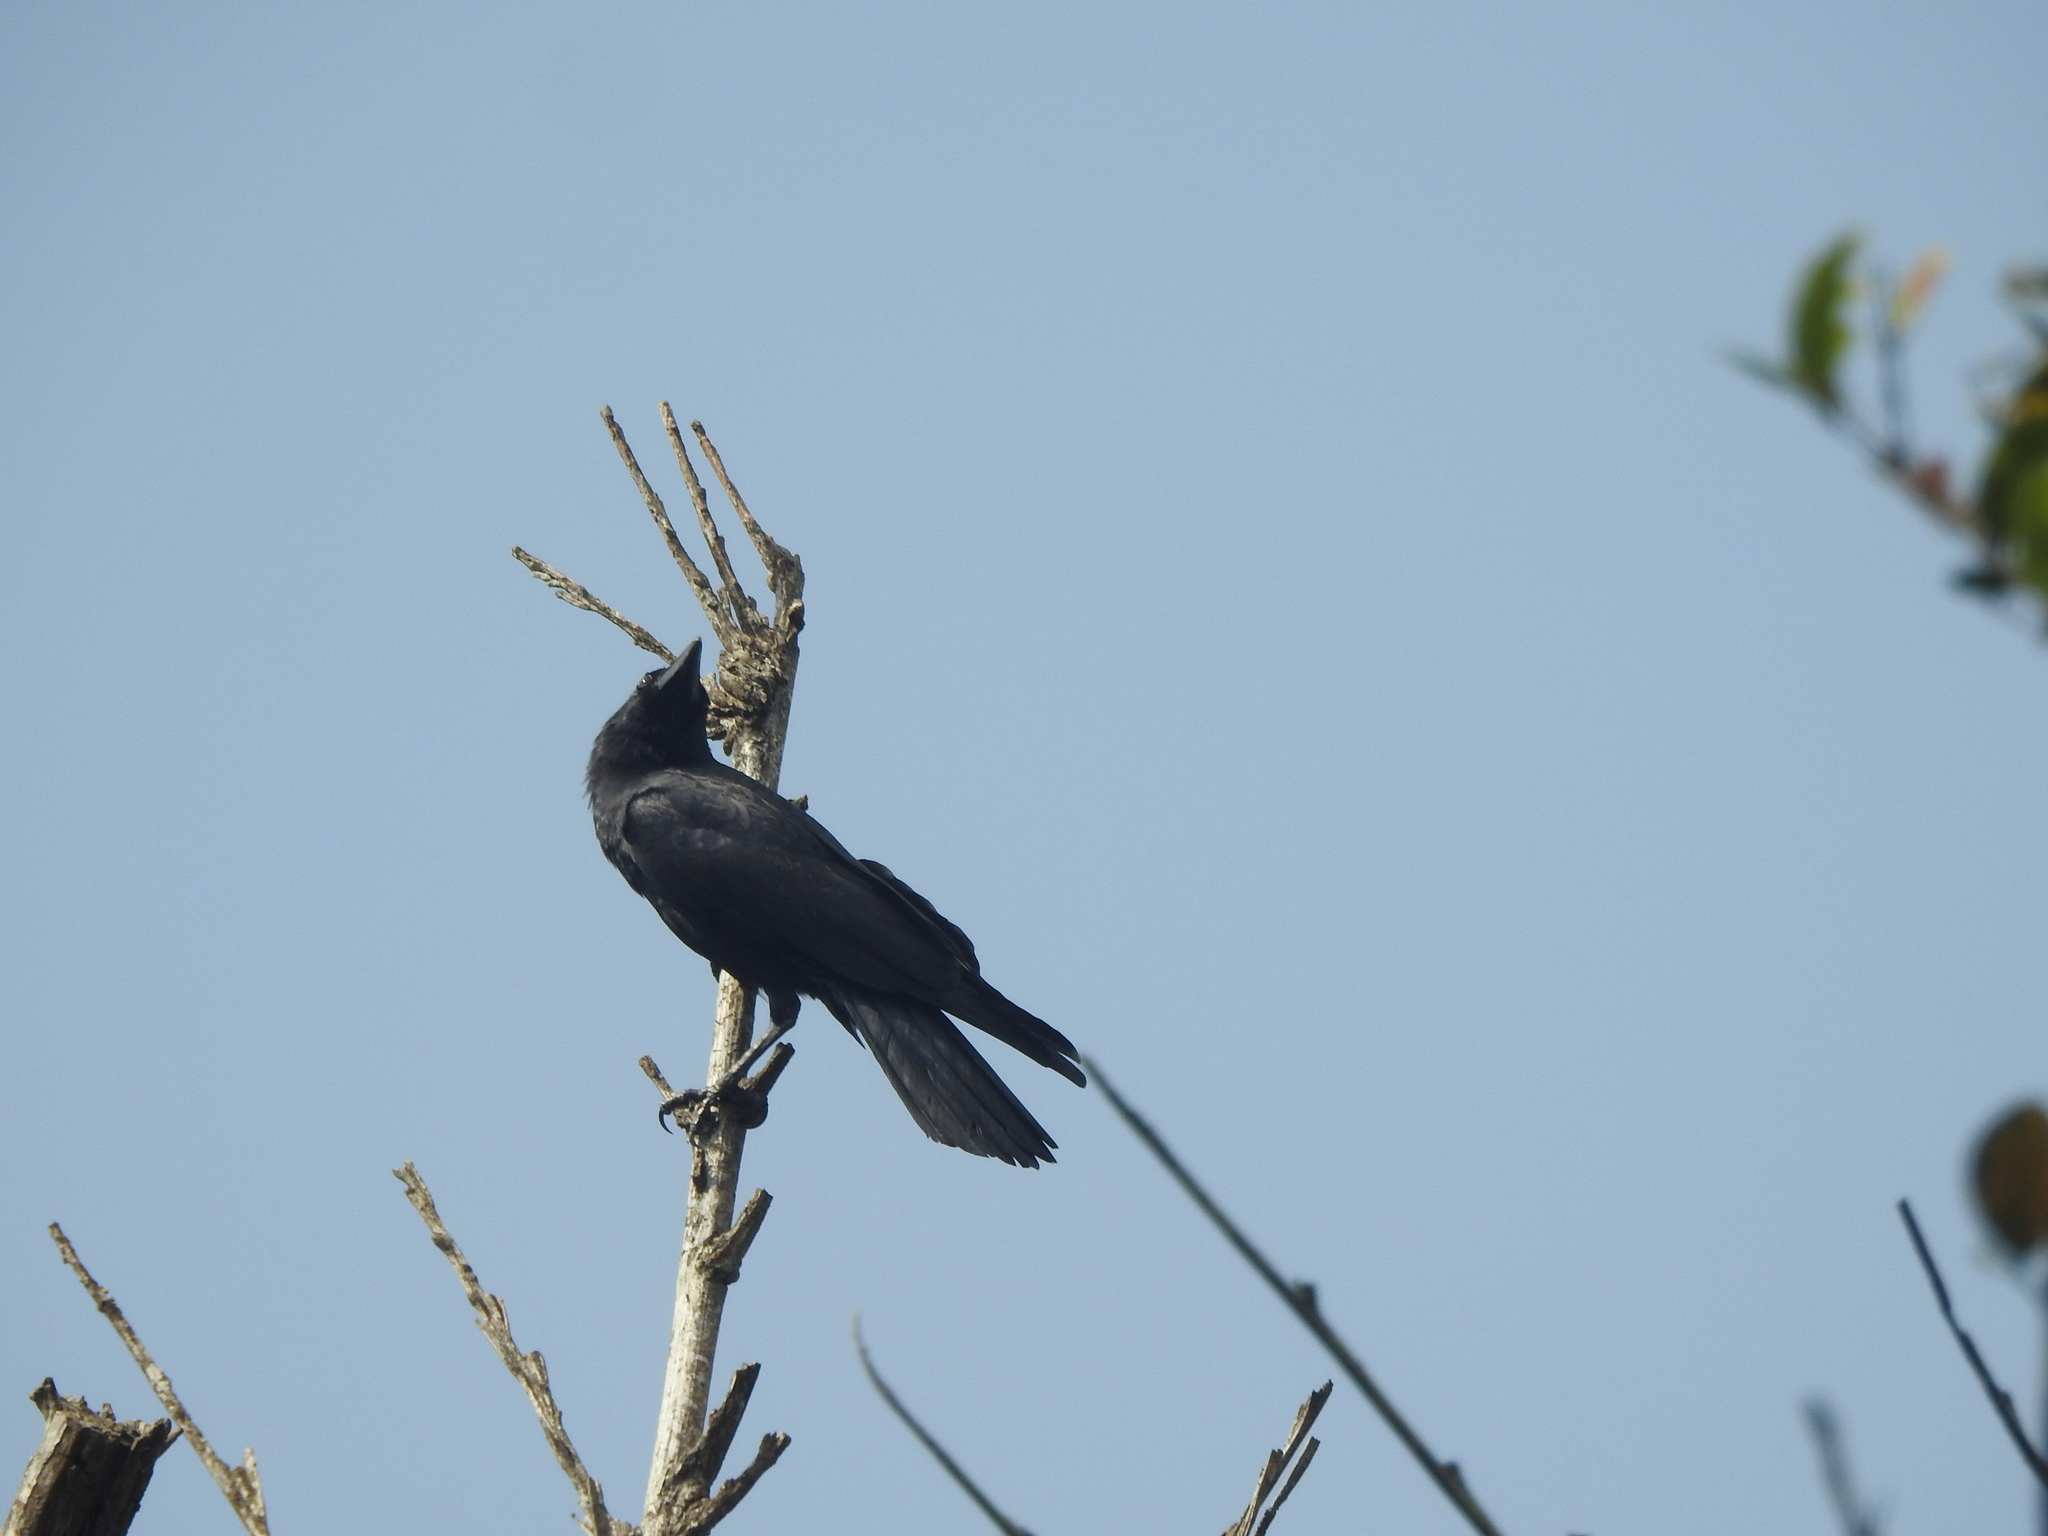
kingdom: Animalia
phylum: Chordata
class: Aves
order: Passeriformes
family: Corvidae
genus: Corvus
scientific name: Corvus macrorhynchos
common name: Large-billed crow
